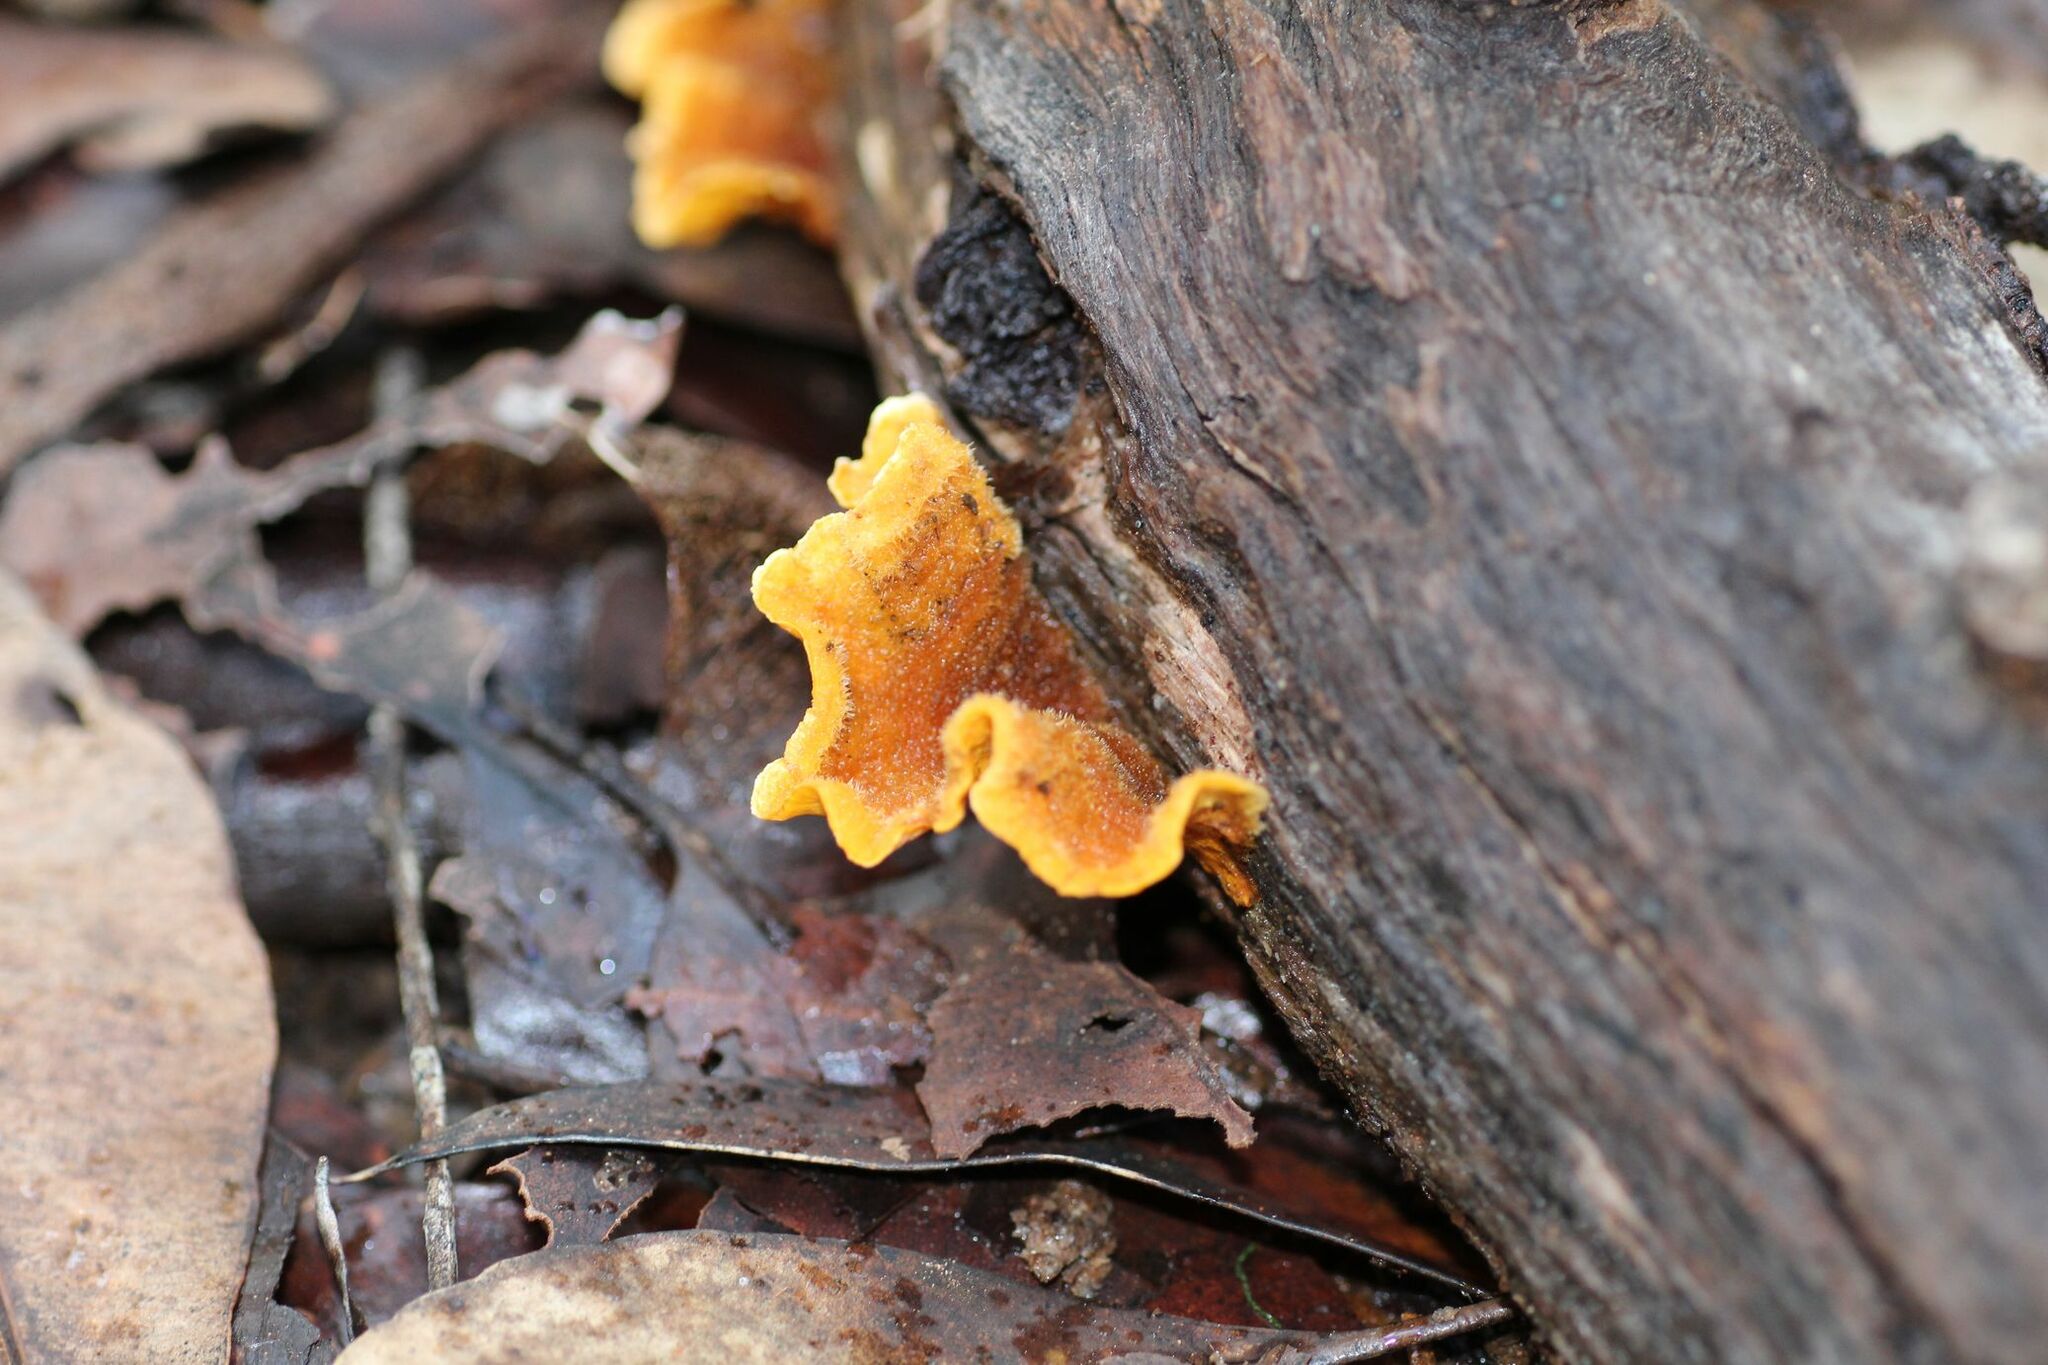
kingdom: Fungi
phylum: Basidiomycota
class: Agaricomycetes
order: Russulales
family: Stereaceae
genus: Stereum
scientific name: Stereum hirsutum
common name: Hairy curtain crust
